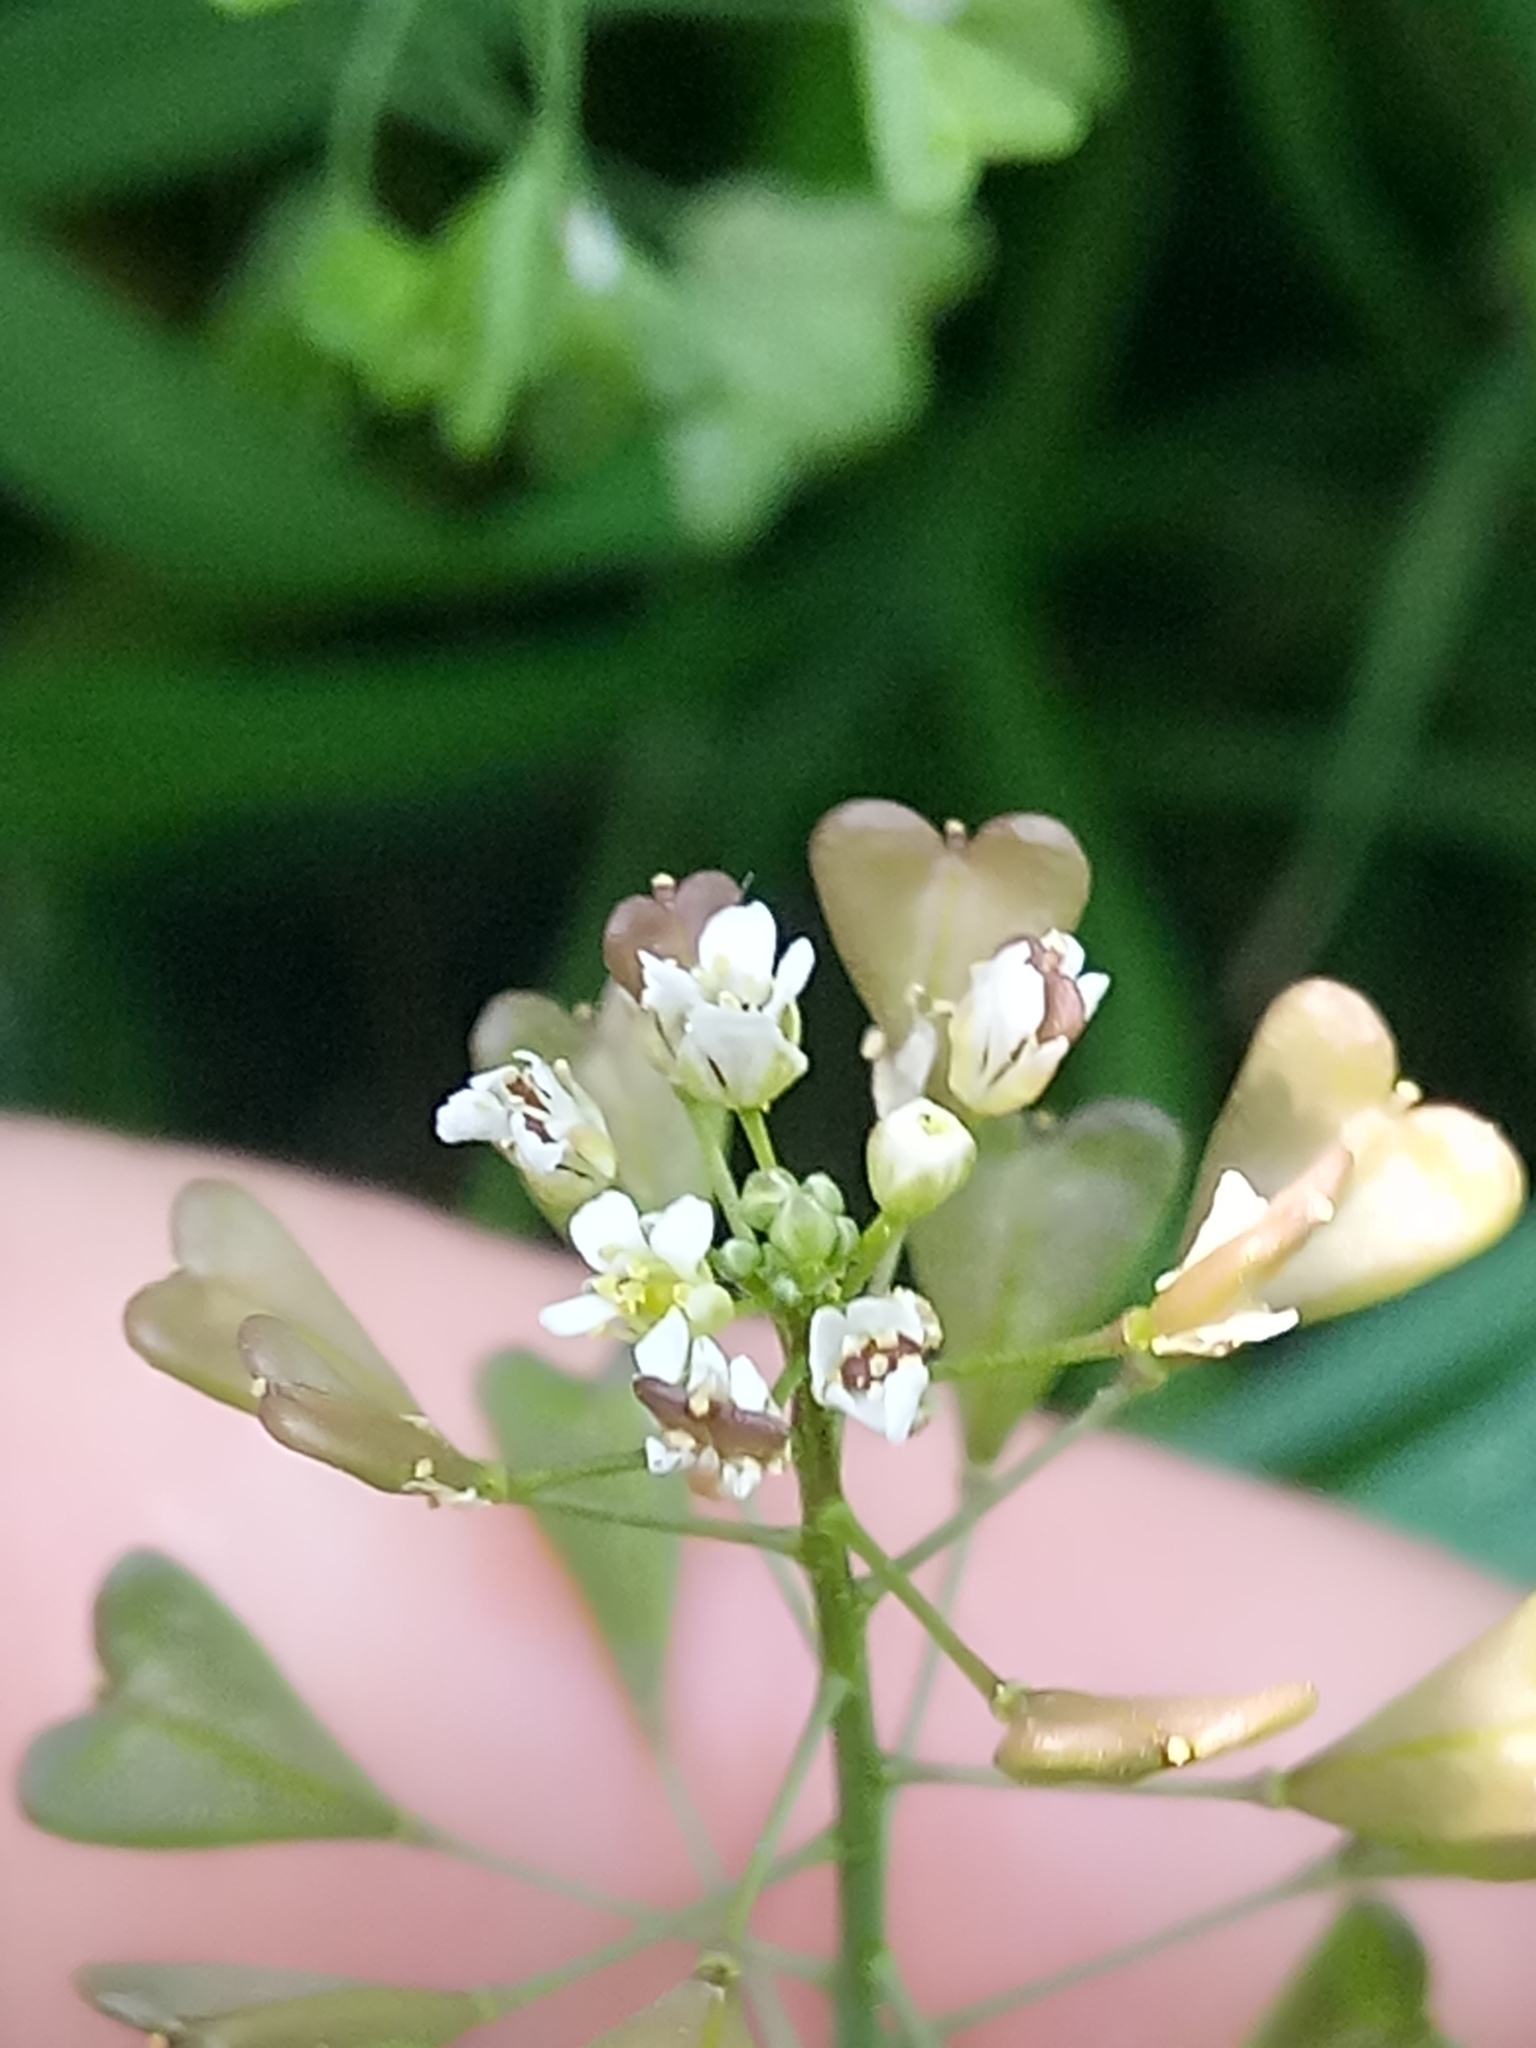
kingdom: Plantae
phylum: Tracheophyta
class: Magnoliopsida
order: Brassicales
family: Brassicaceae
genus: Capsella
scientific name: Capsella bursa-pastoris
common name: Shepherd's purse
